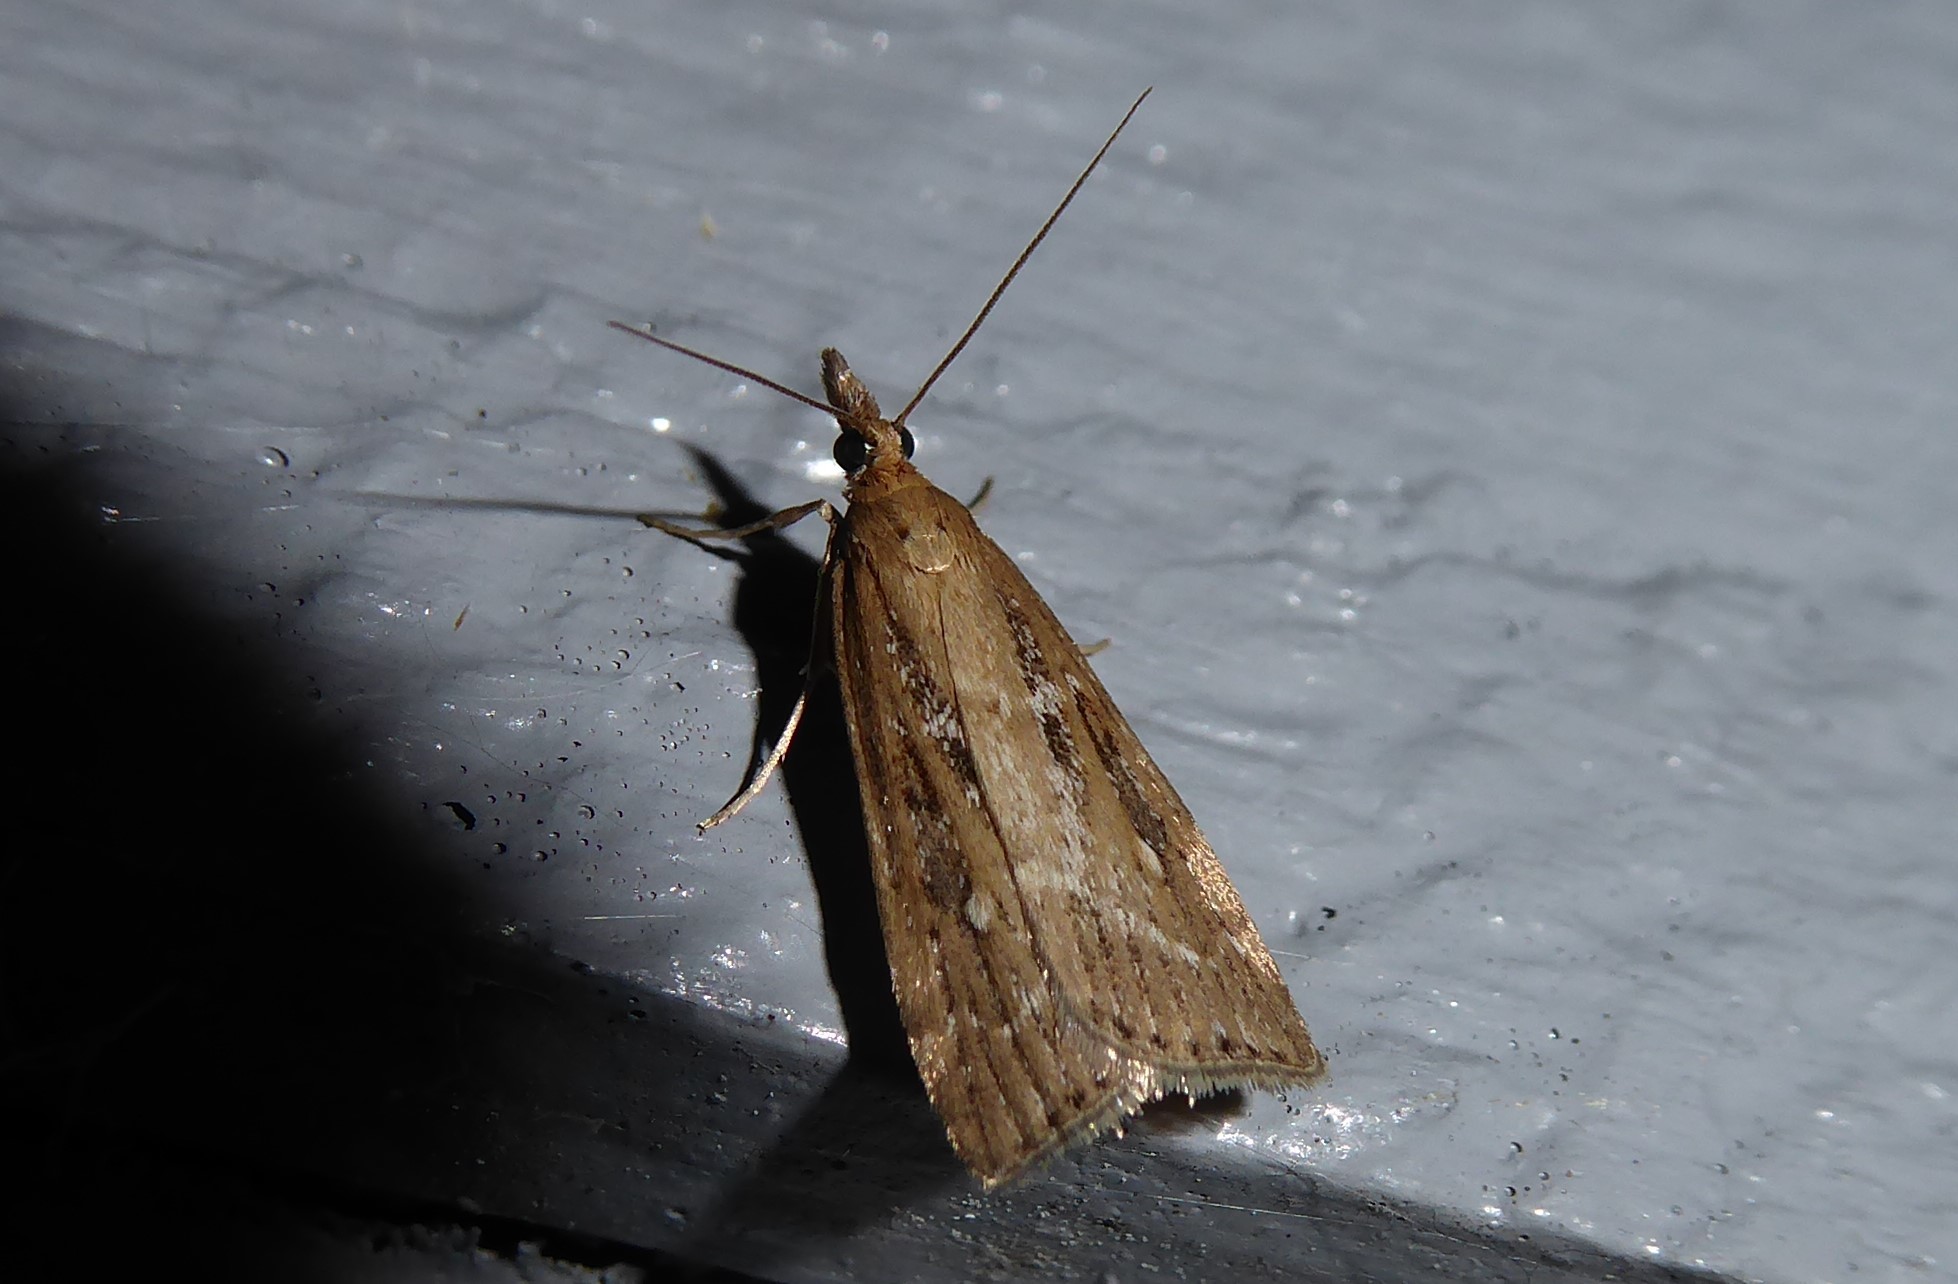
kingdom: Animalia
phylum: Arthropoda
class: Insecta
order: Lepidoptera
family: Crambidae
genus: Eudonia
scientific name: Eudonia octophora
